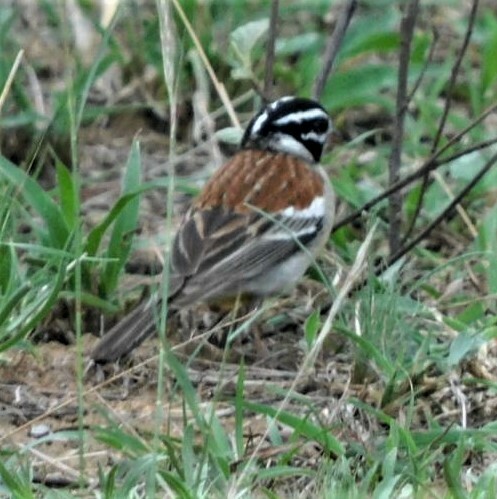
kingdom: Animalia
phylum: Chordata
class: Aves
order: Passeriformes
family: Emberizidae
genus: Emberiza
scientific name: Emberiza flaviventris
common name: Golden-breasted bunting
